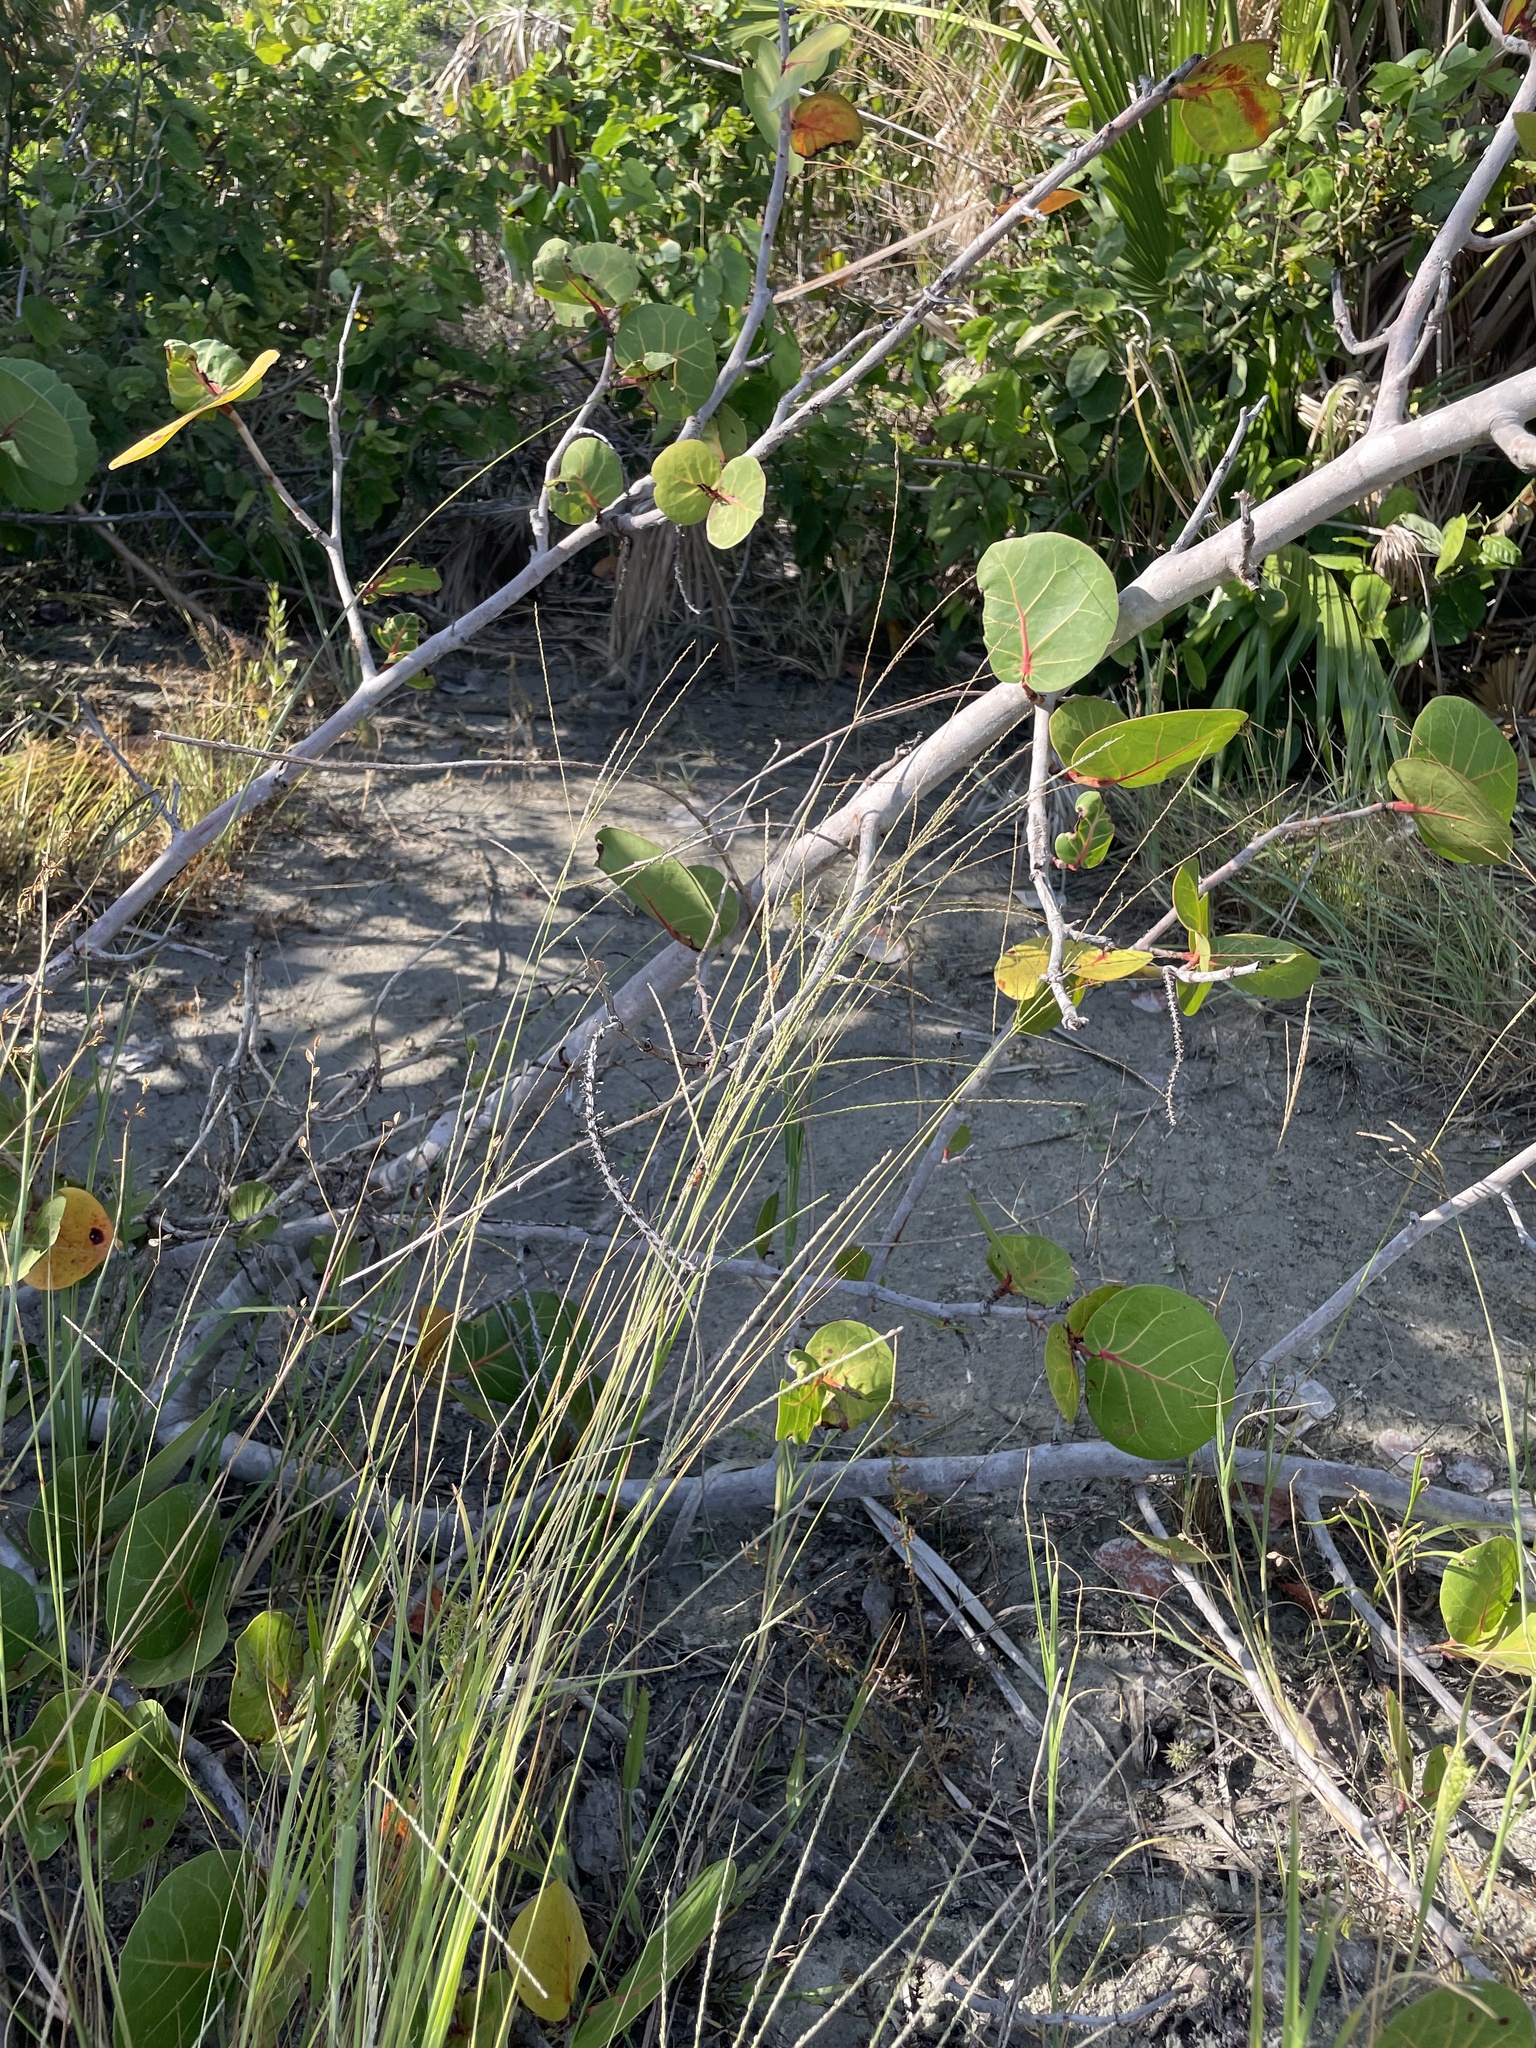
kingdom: Plantae
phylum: Tracheophyta
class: Magnoliopsida
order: Caryophyllales
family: Polygonaceae
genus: Coccoloba
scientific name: Coccoloba uvifera
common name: Seagrape
